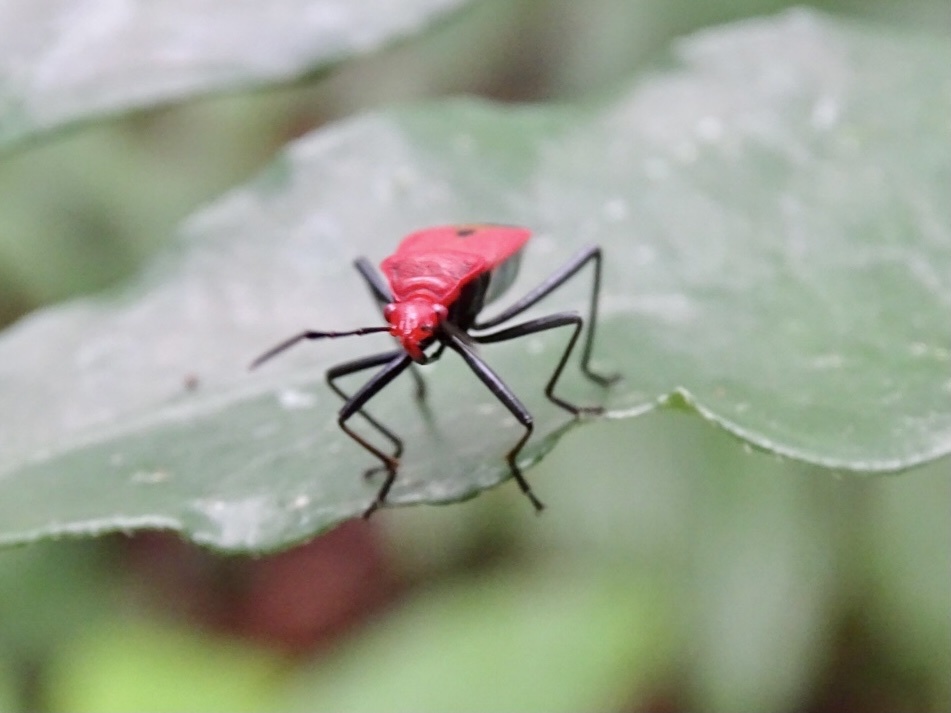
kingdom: Animalia
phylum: Arthropoda
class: Insecta
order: Hemiptera
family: Pyrrhocoridae
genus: Dindymus
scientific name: Dindymus
